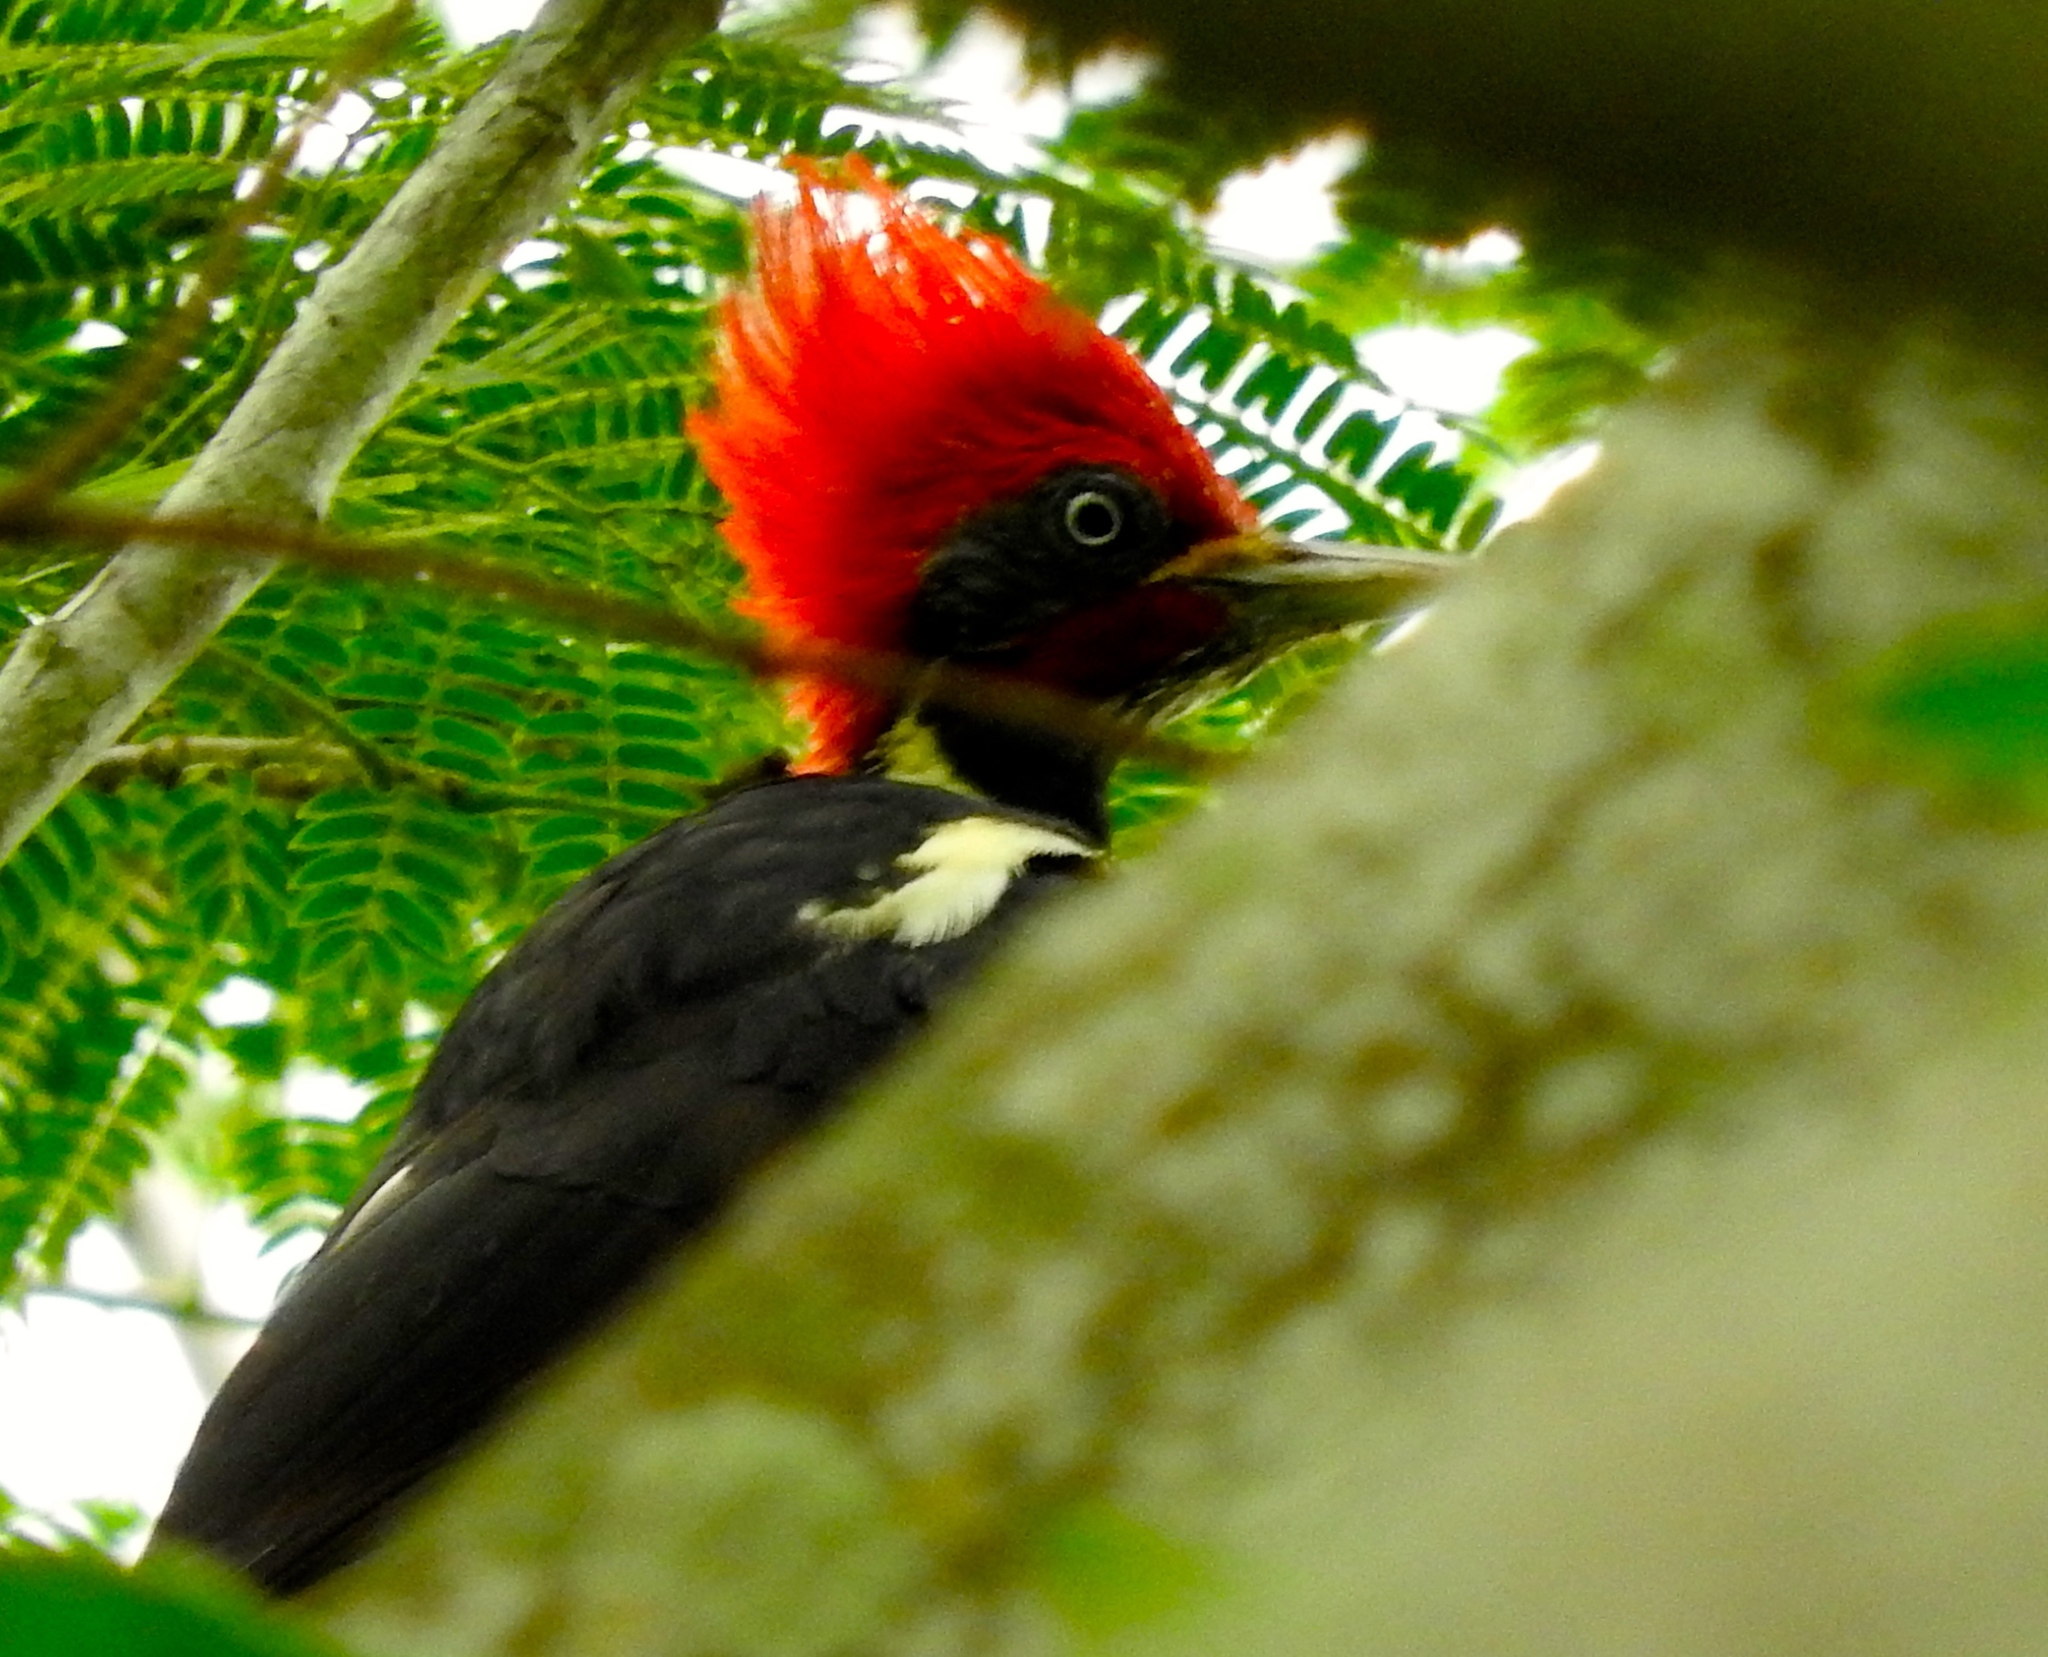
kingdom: Animalia
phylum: Chordata
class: Aves
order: Piciformes
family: Picidae
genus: Dryocopus
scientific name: Dryocopus lineatus
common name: Lineated woodpecker
